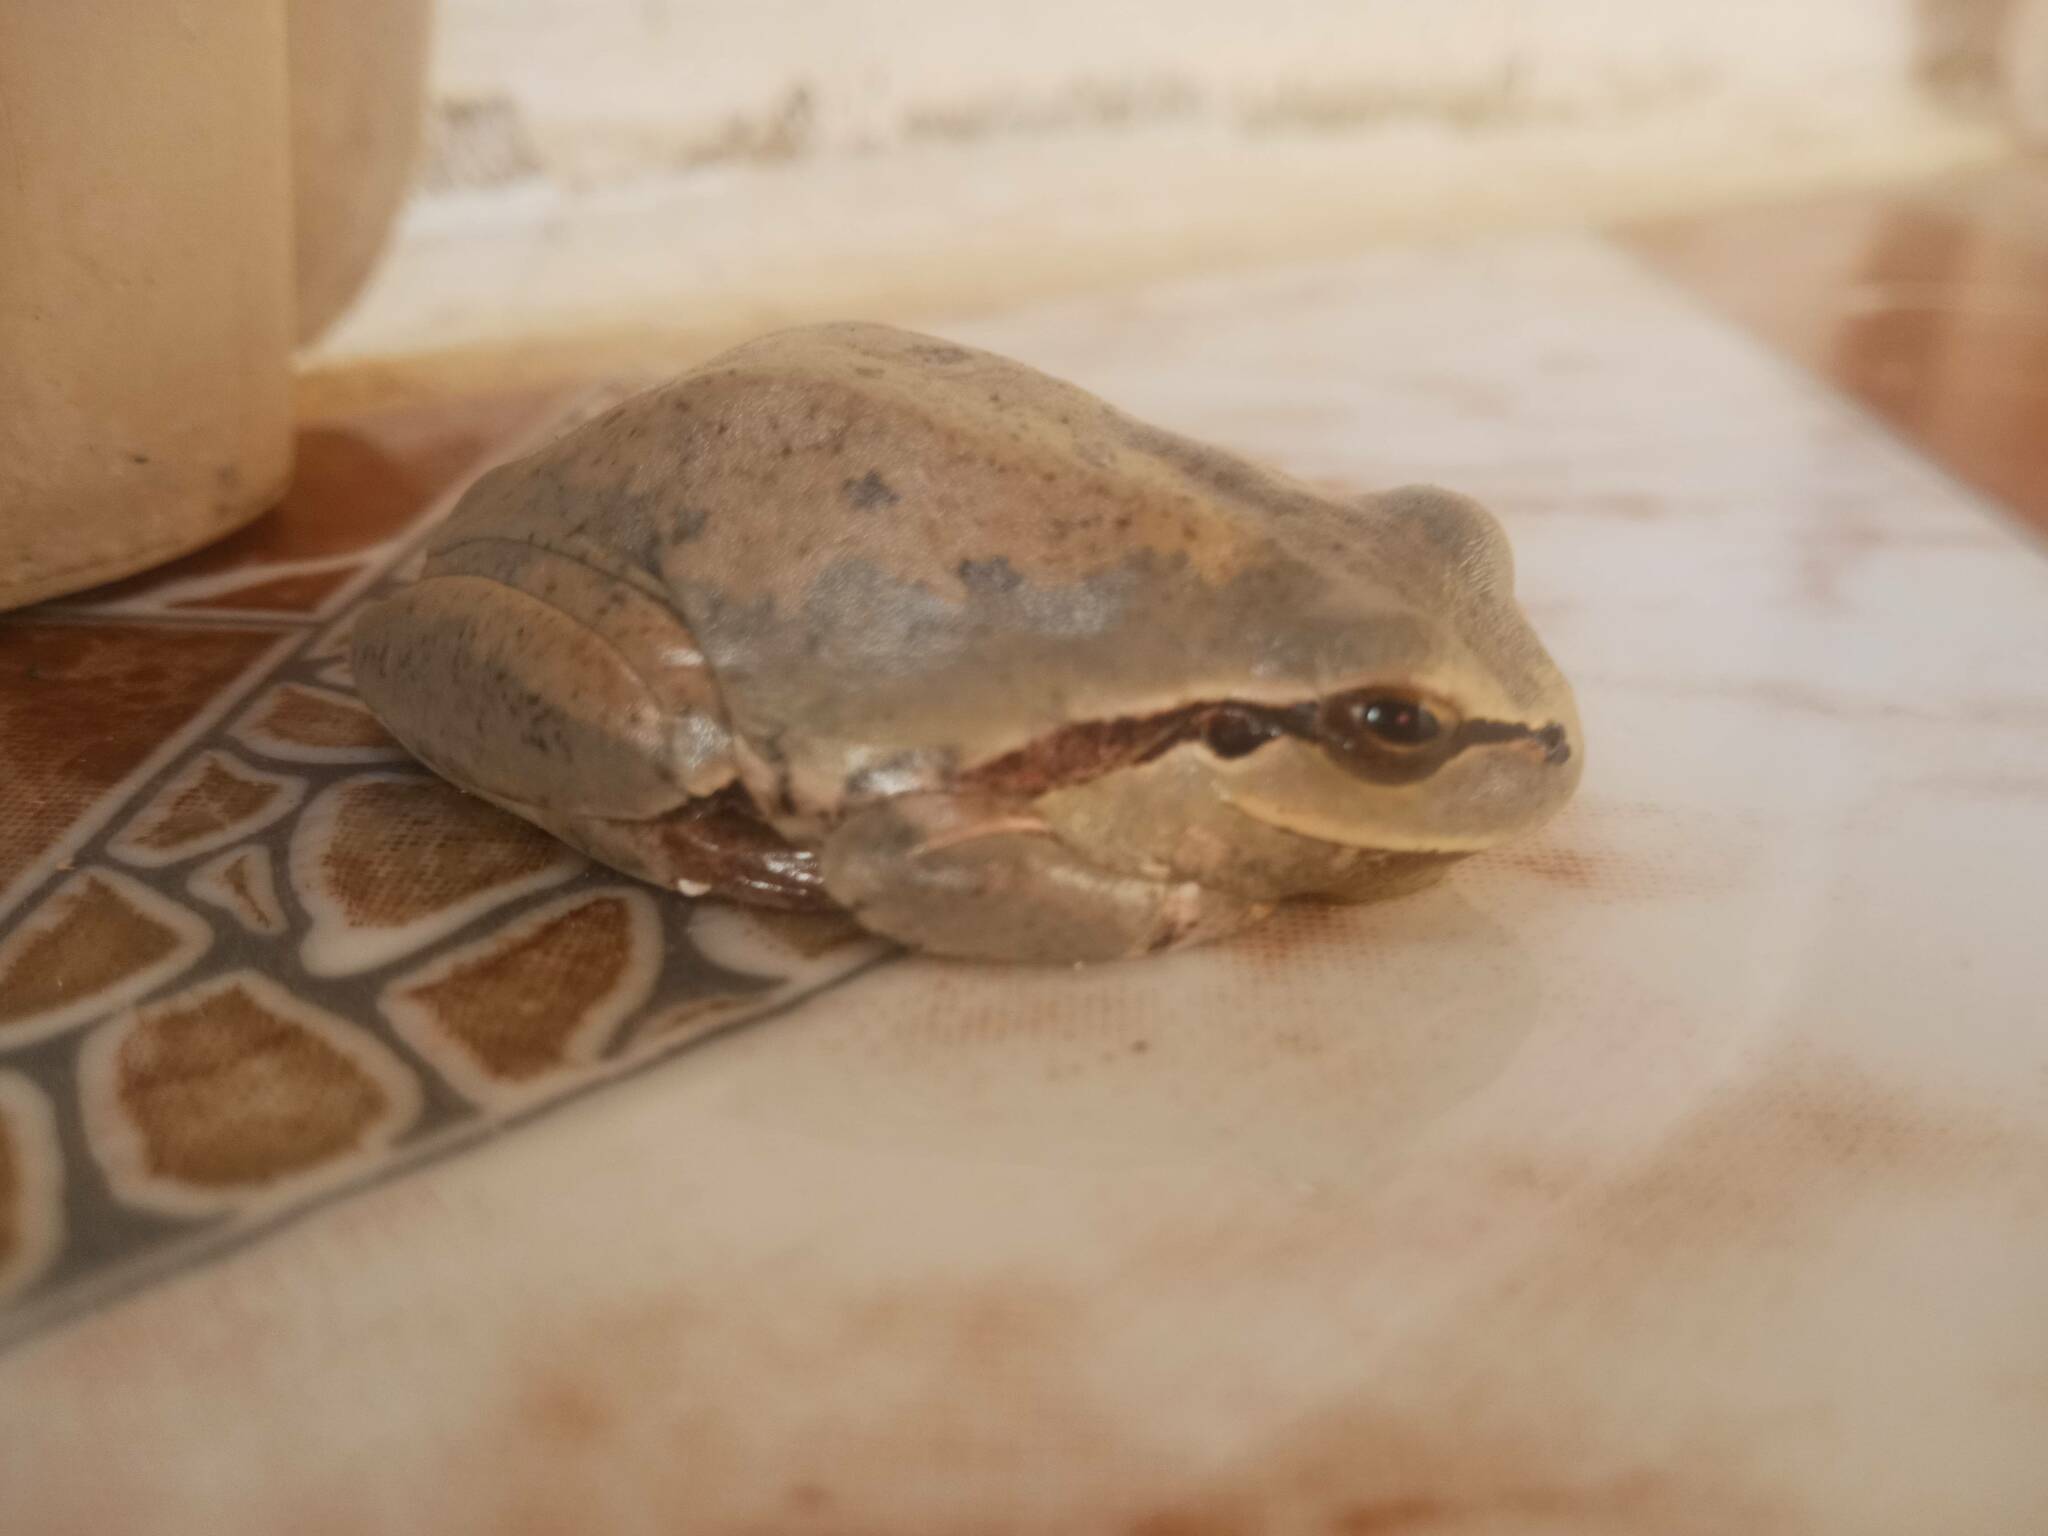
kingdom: Animalia
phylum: Chordata
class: Amphibia
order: Anura
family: Hylidae
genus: Hyla
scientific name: Hyla meridionalis
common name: Stripeless tree frog
